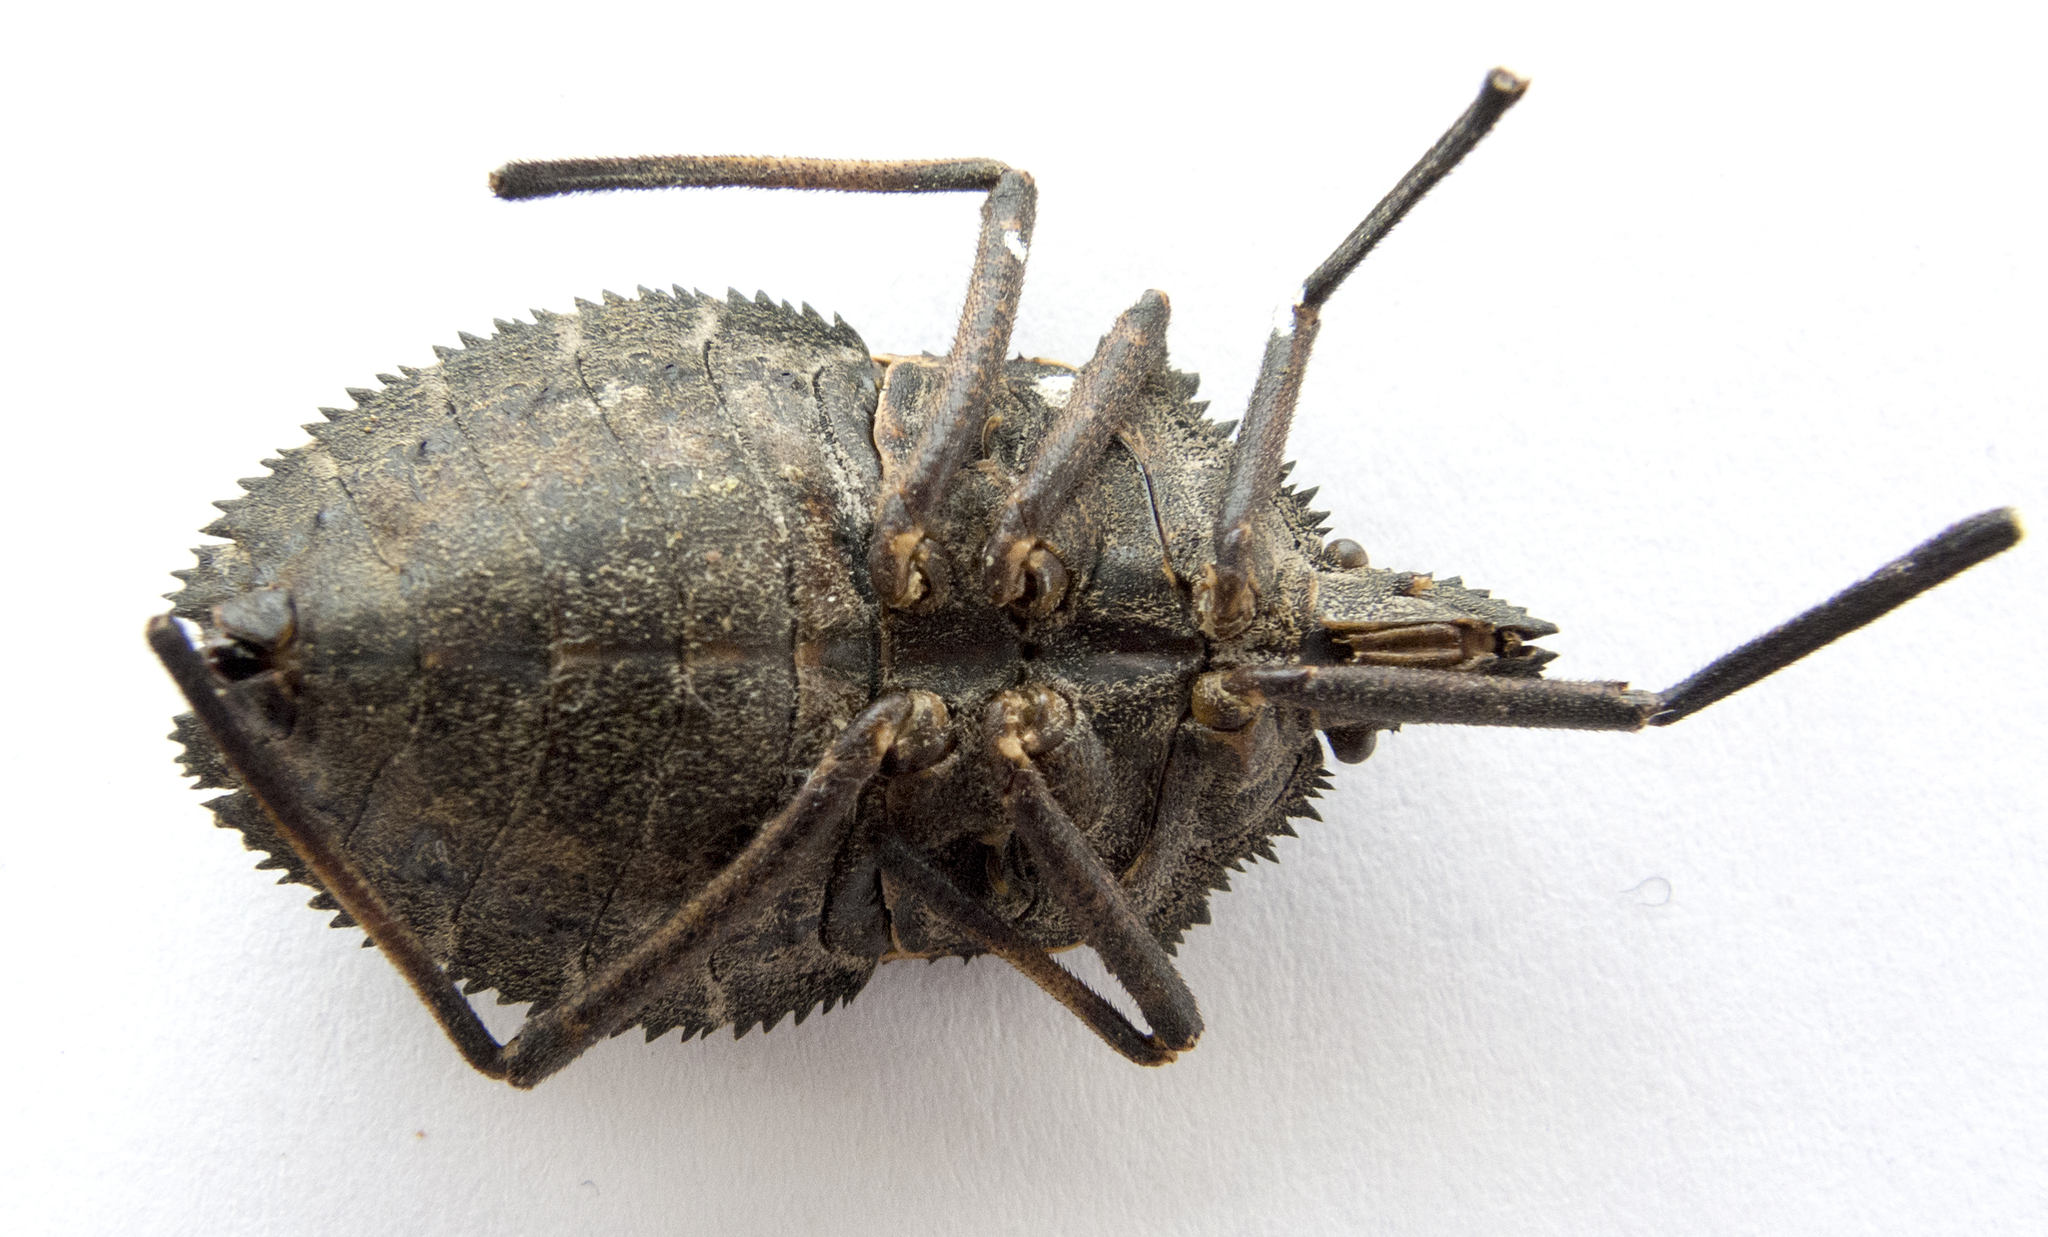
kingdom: Animalia
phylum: Arthropoda
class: Insecta
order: Hemiptera
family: Pentatomidae
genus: Mustha
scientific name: Mustha spinosula
